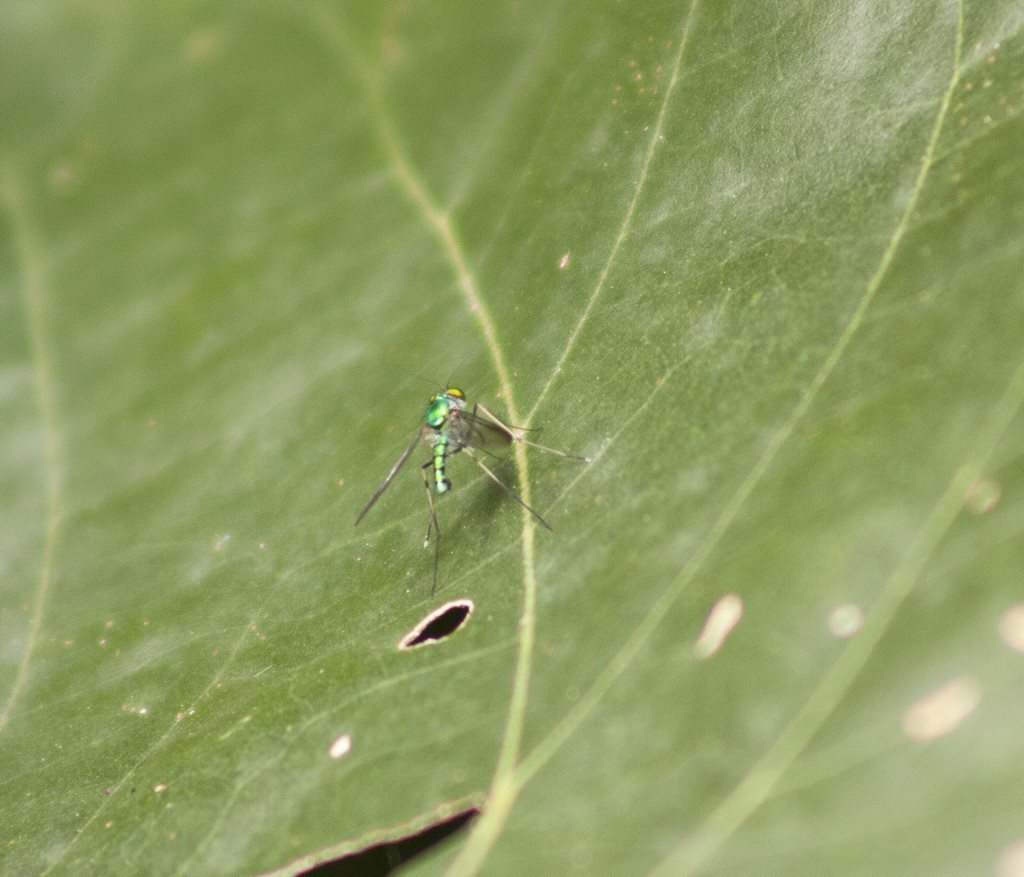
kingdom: Animalia
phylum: Arthropoda
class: Insecta
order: Diptera
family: Dolichopodidae
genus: Chrysosoma
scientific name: Chrysosoma leucopogon
